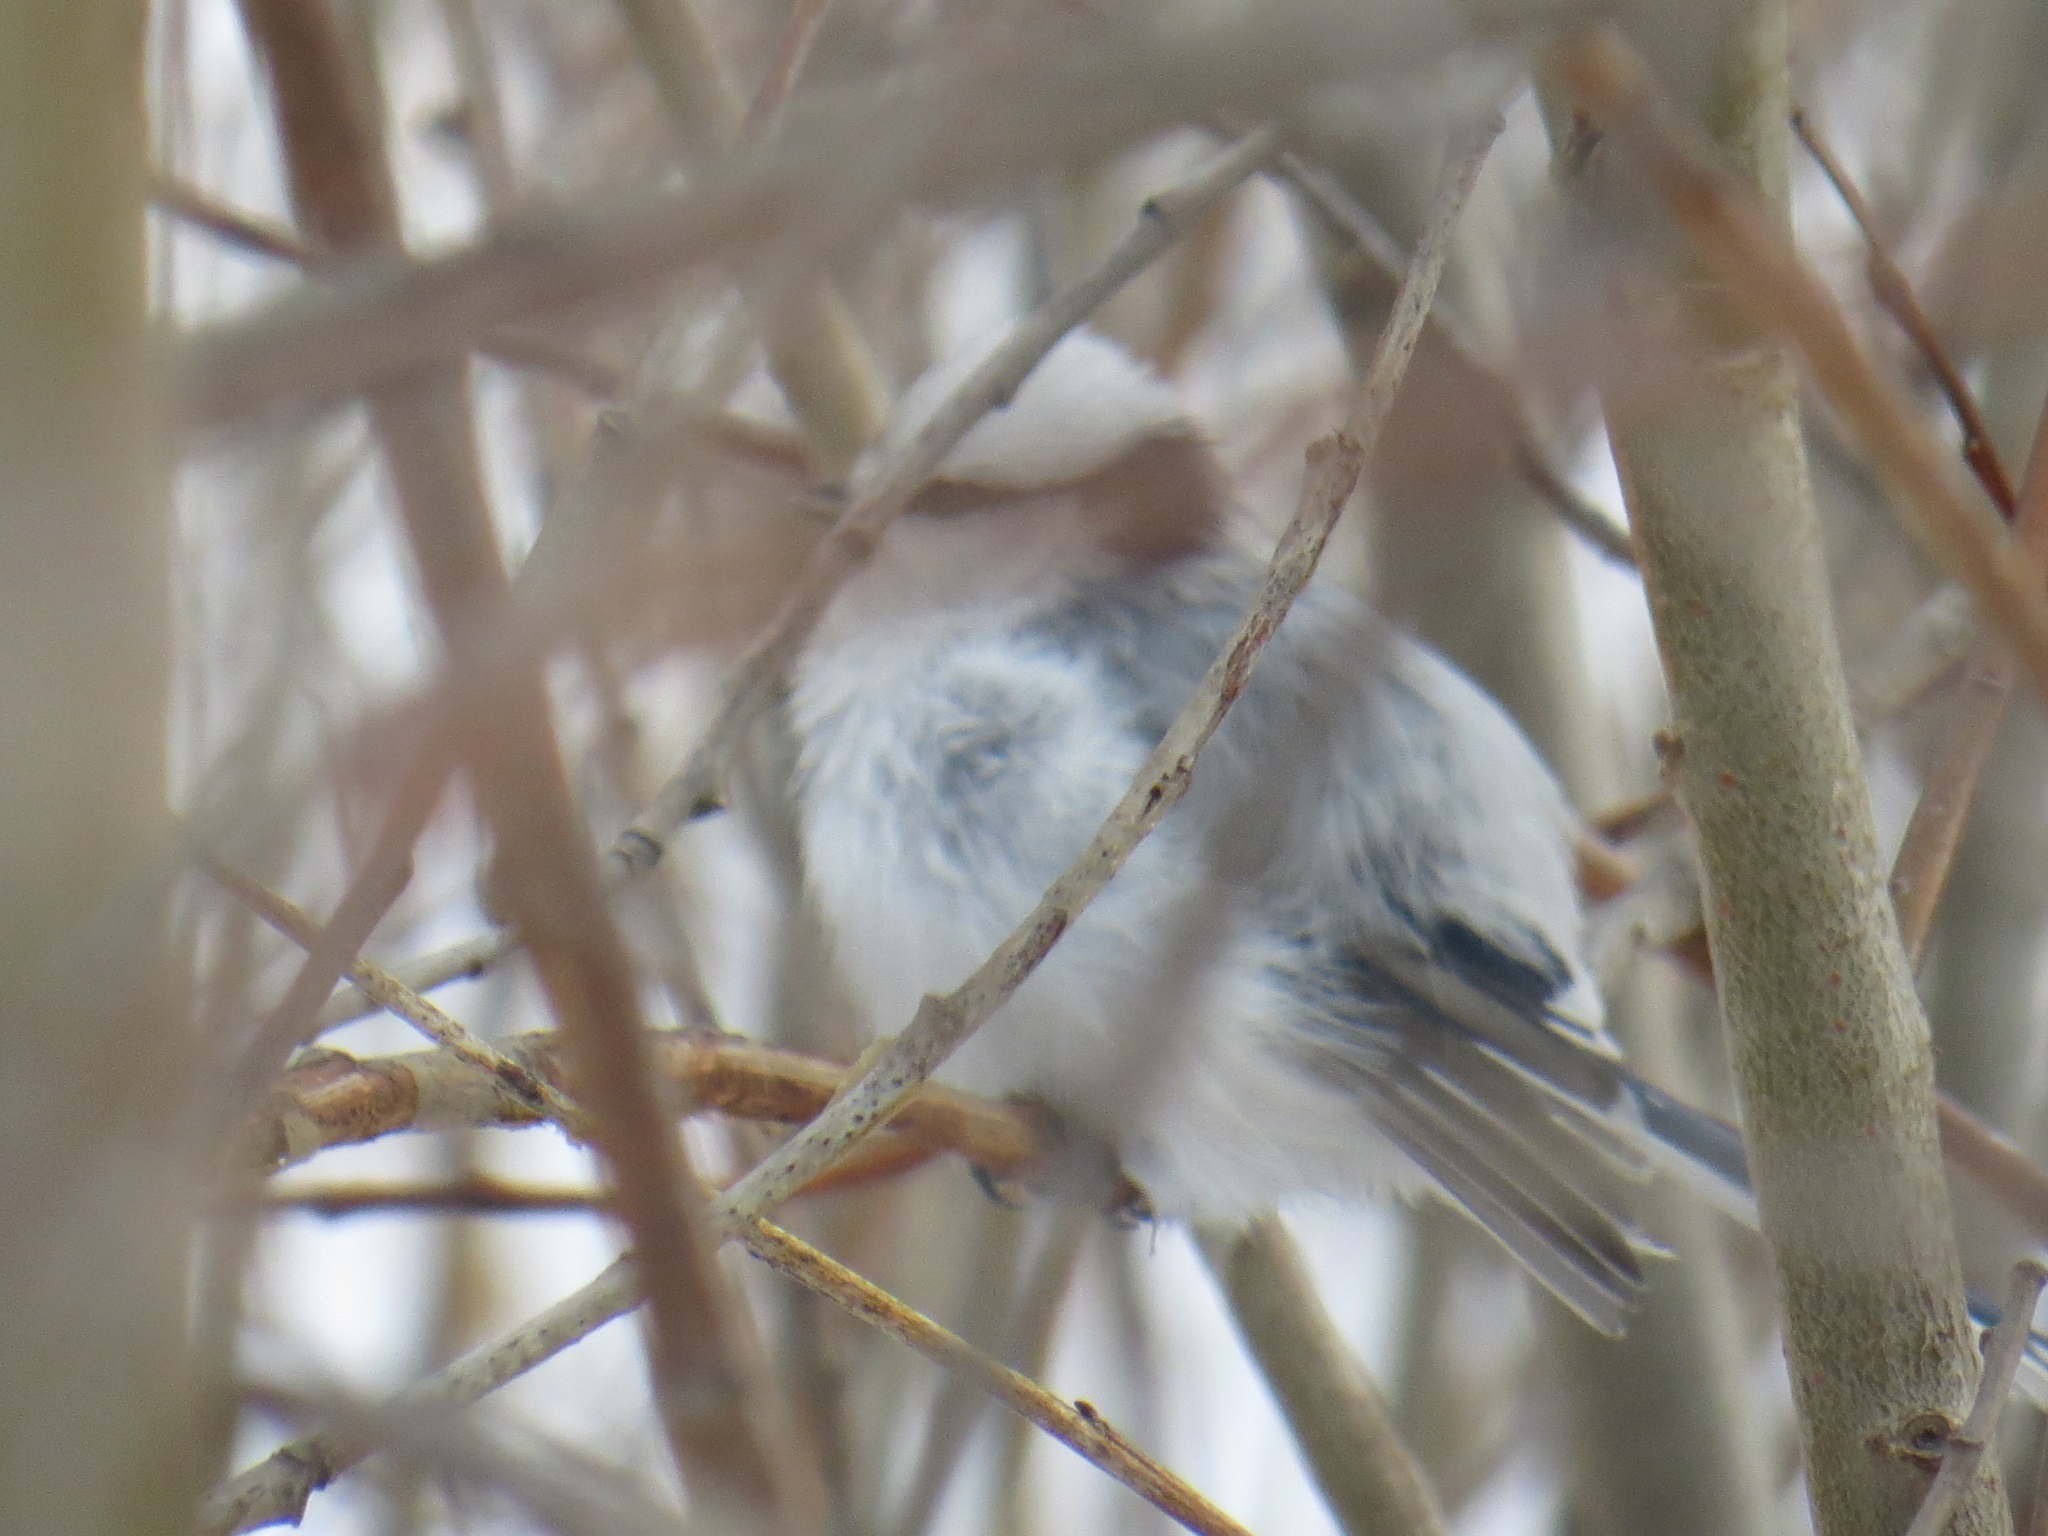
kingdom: Animalia
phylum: Chordata
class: Aves
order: Passeriformes
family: Paridae
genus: Cyanistes
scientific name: Cyanistes cyanus
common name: Azure tit
